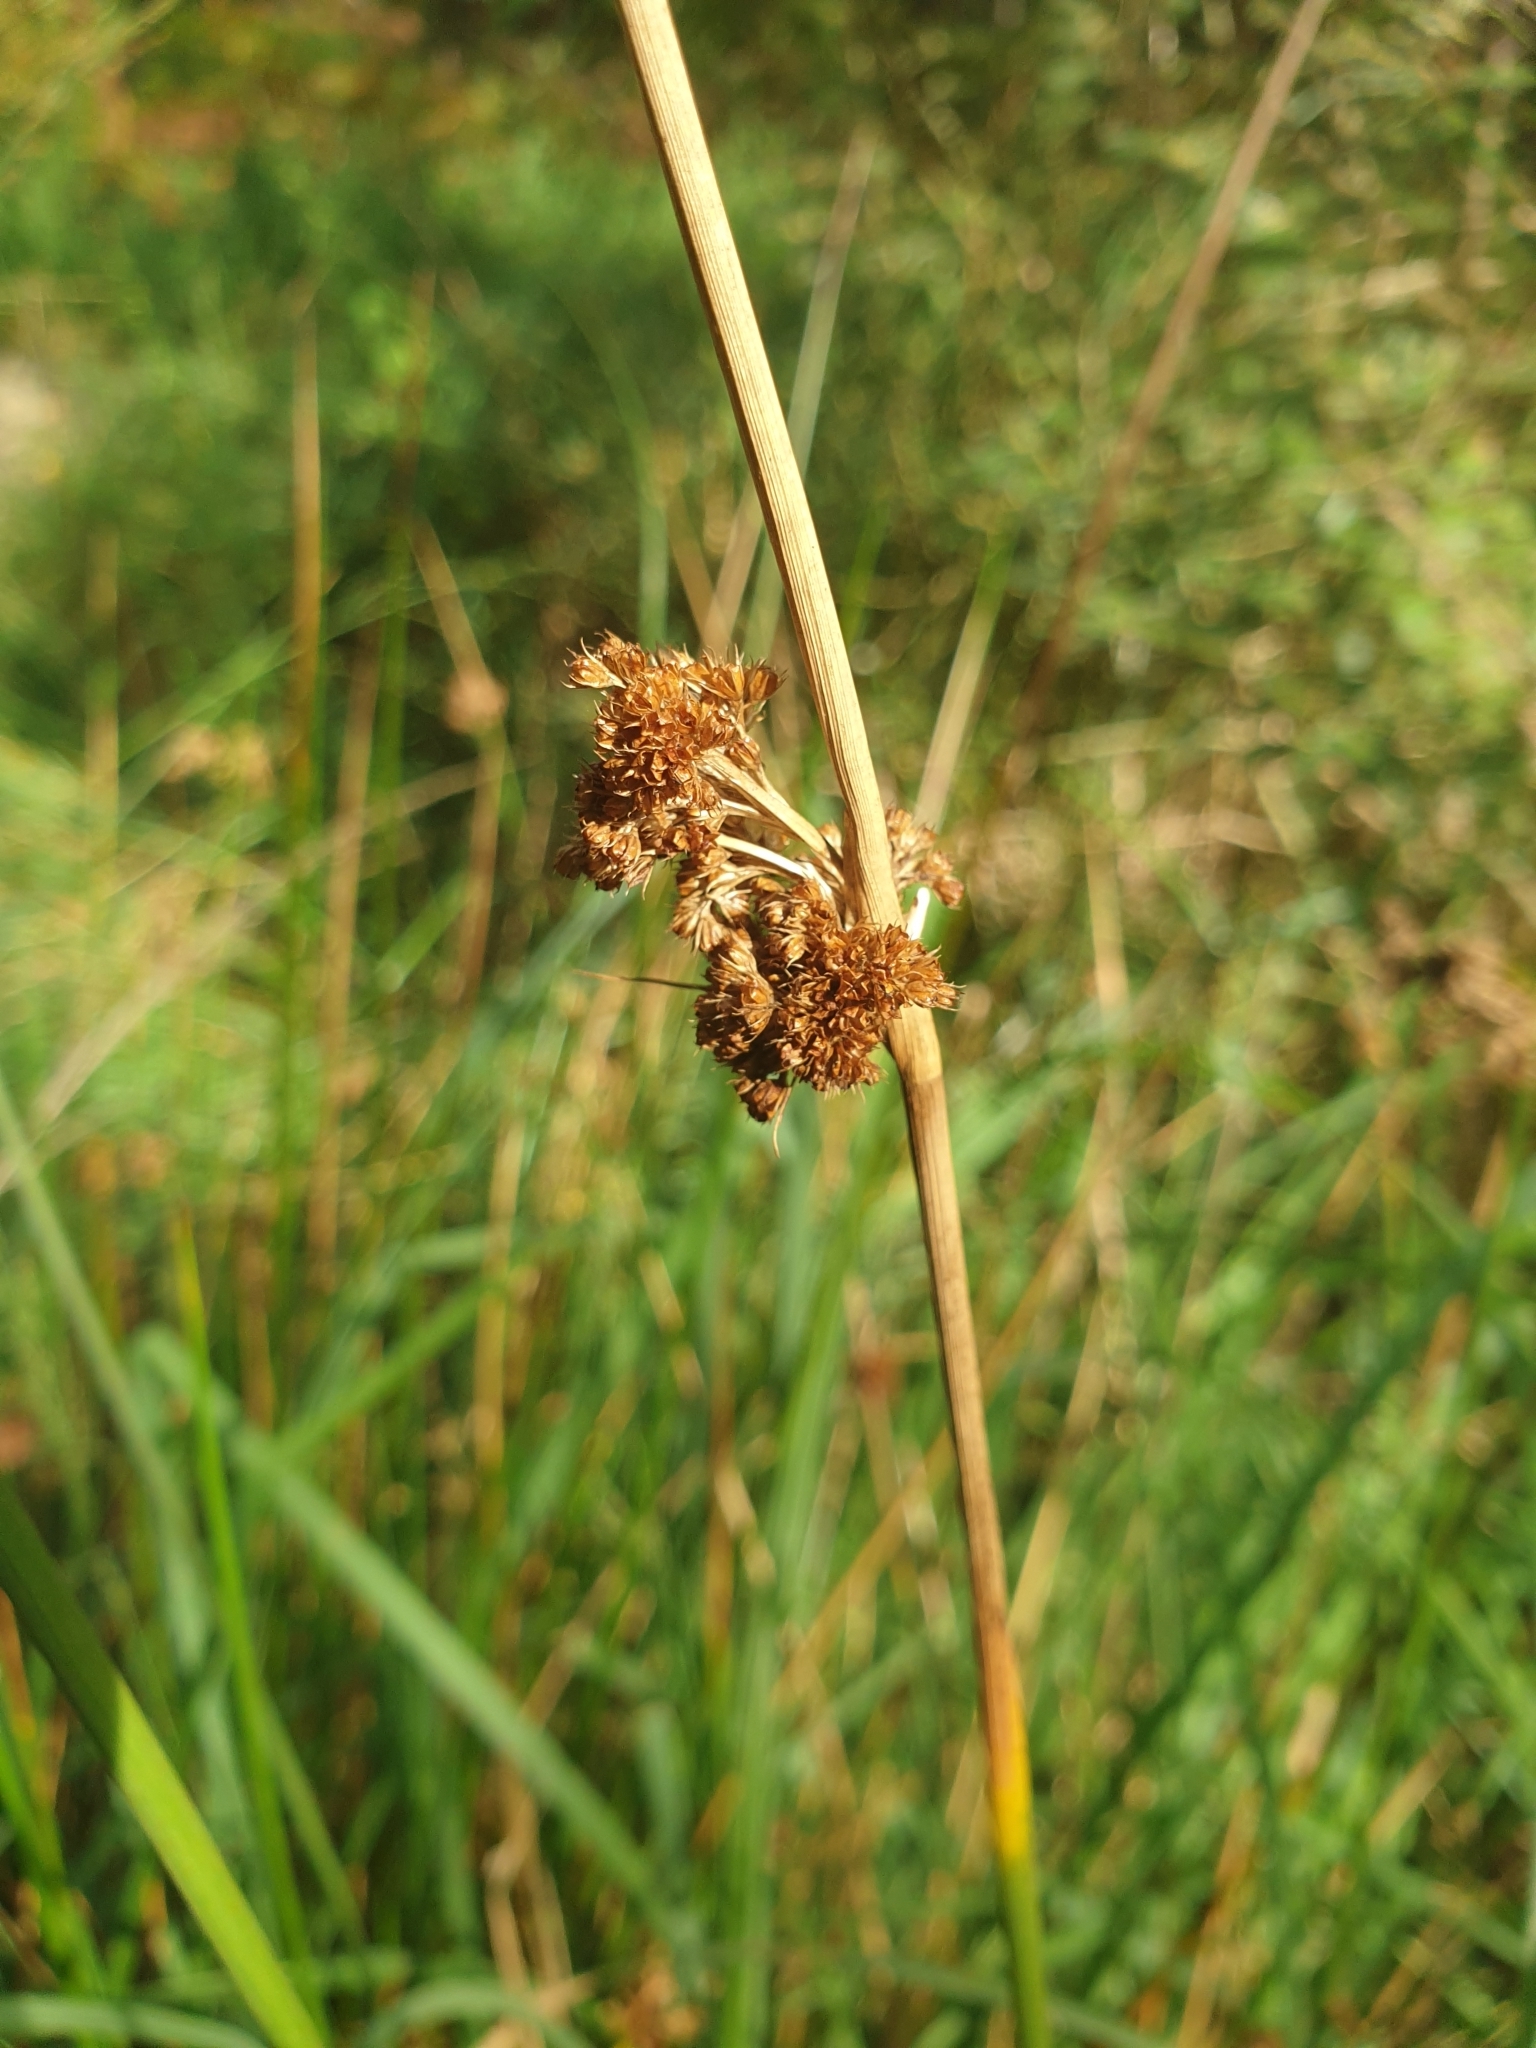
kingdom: Plantae
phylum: Tracheophyta
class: Liliopsida
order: Poales
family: Juncaceae
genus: Juncus
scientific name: Juncus effusus
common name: Soft rush
